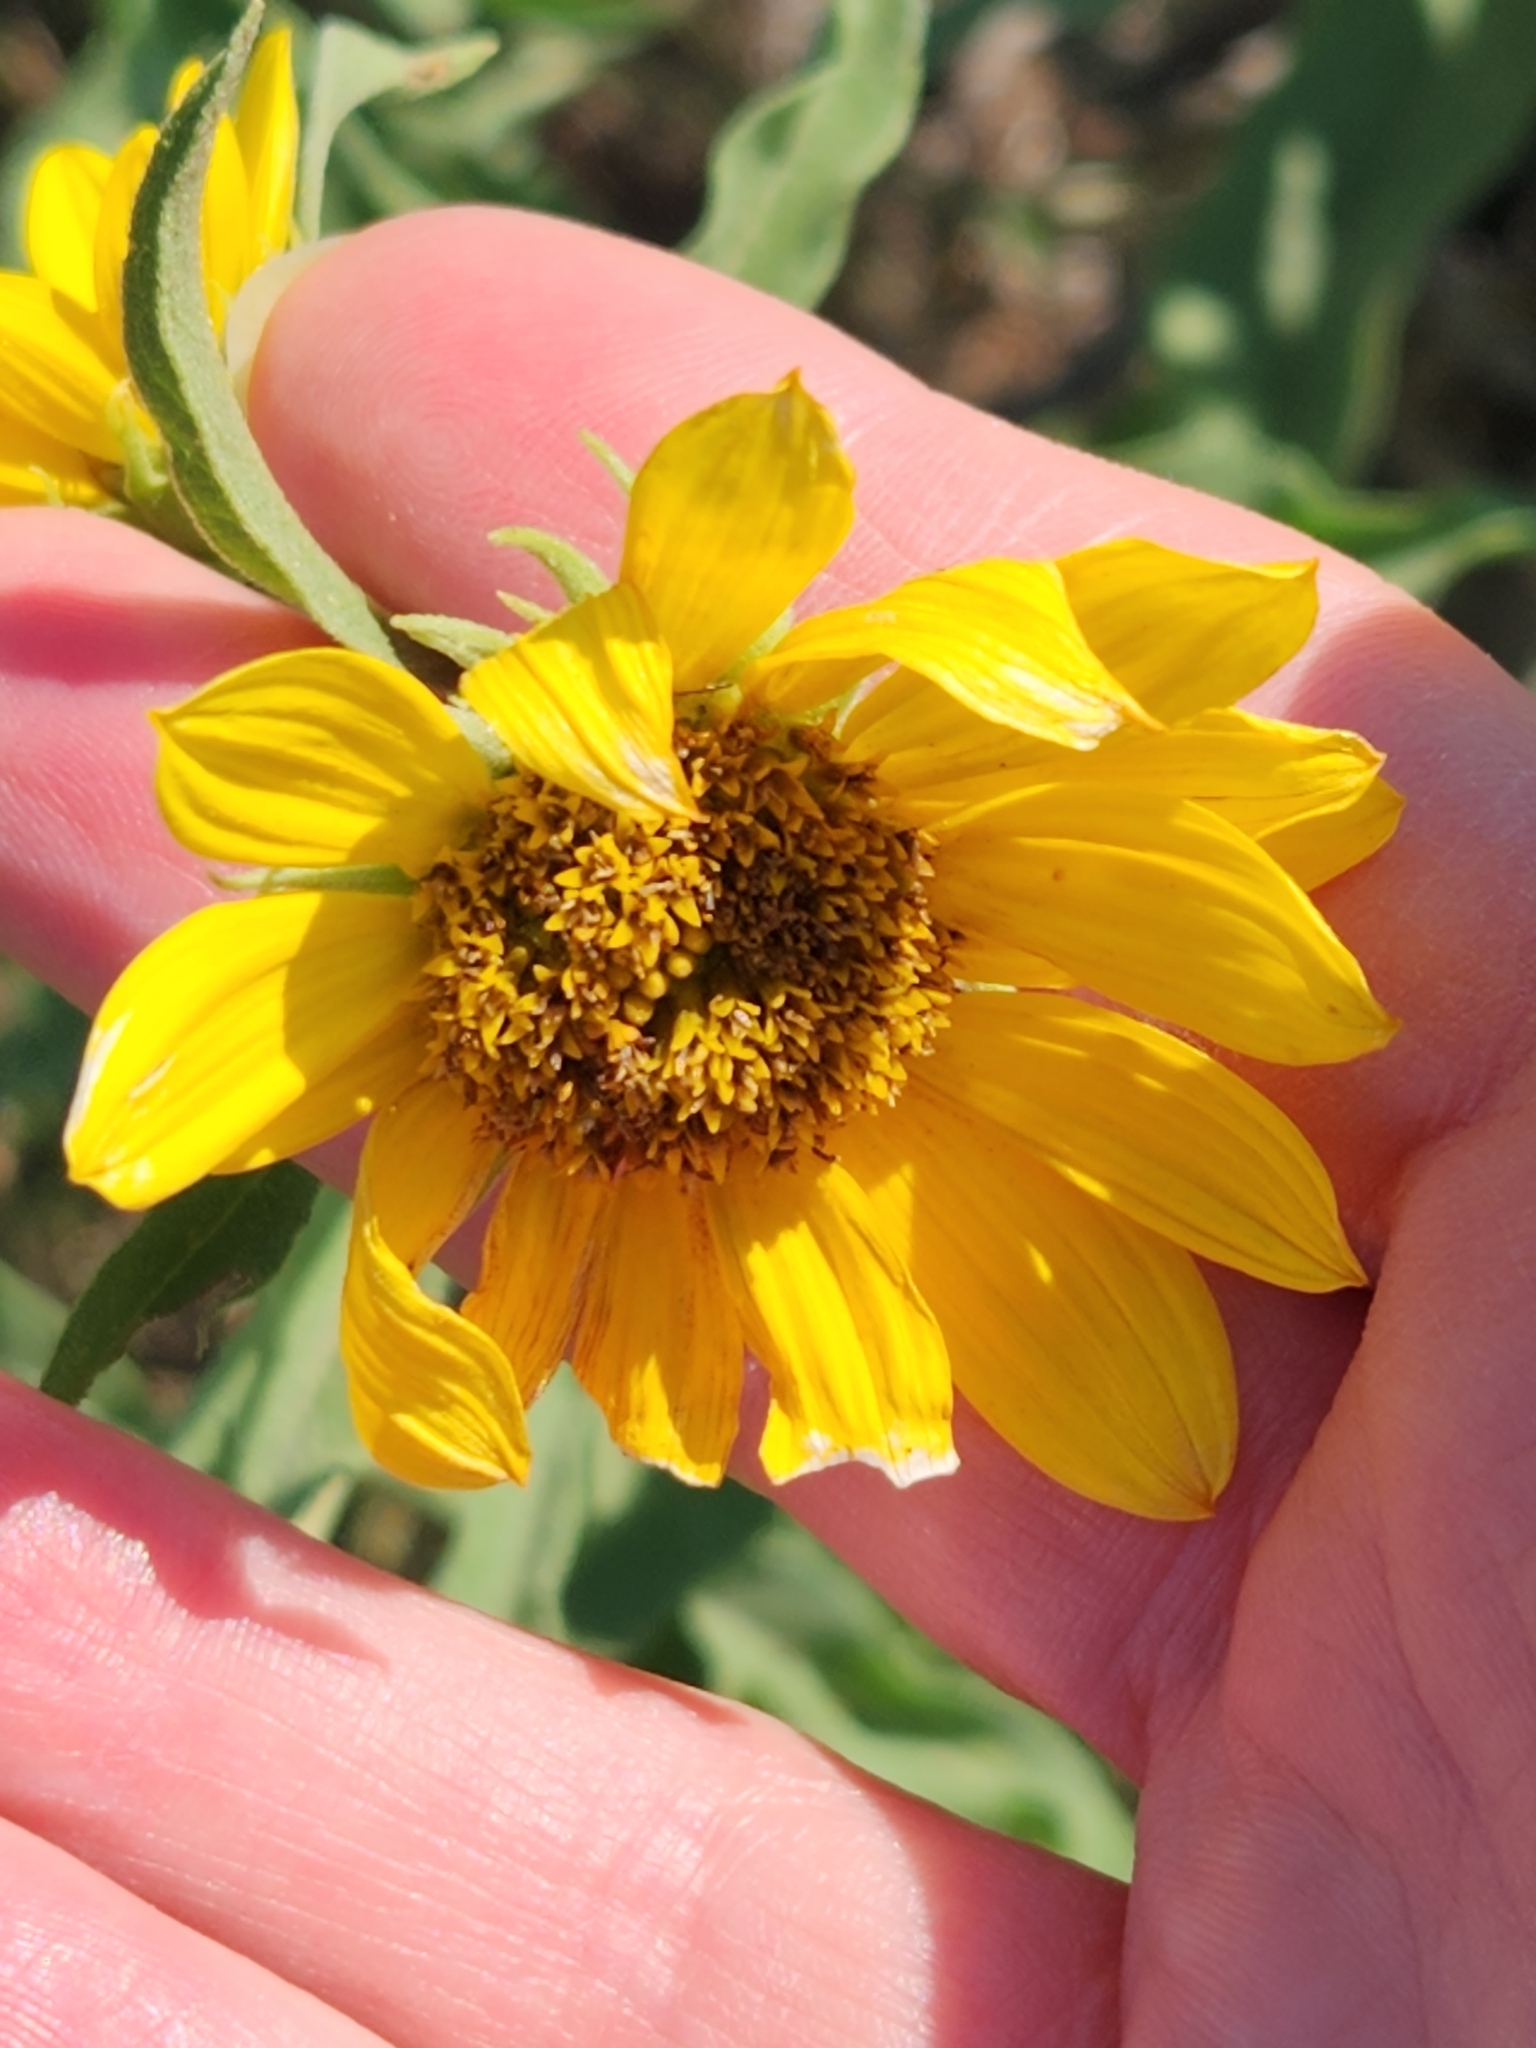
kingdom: Plantae
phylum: Tracheophyta
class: Magnoliopsida
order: Asterales
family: Asteraceae
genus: Helianthus
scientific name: Helianthus maximiliani
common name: Maximilian's sunflower
